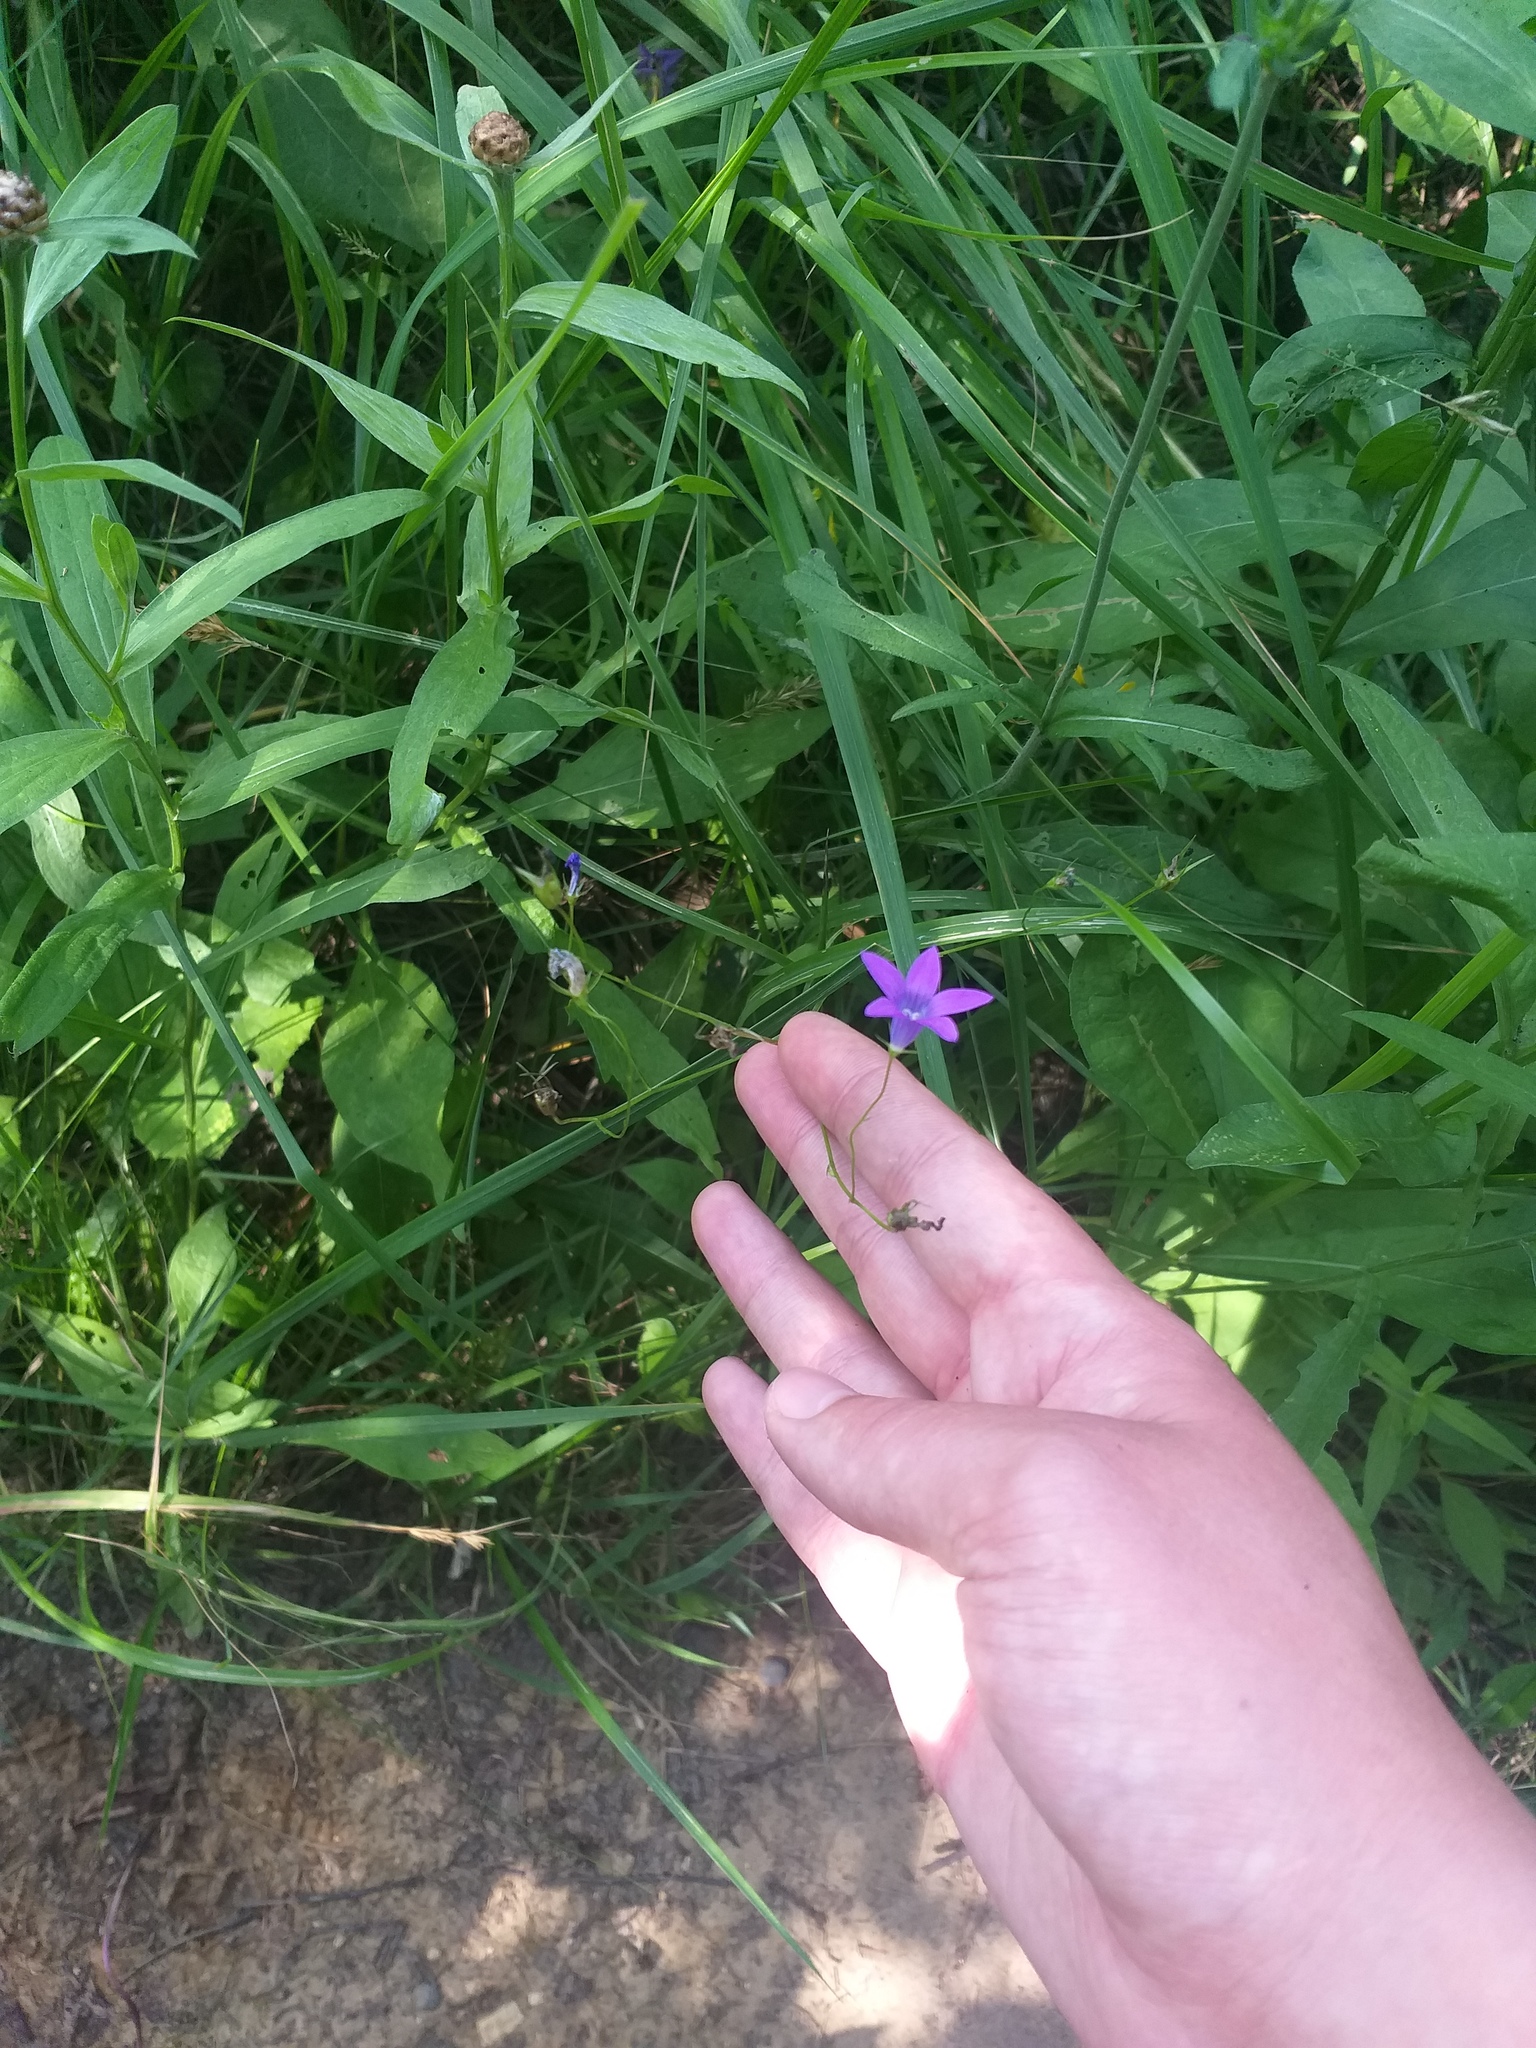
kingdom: Plantae
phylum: Tracheophyta
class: Magnoliopsida
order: Asterales
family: Campanulaceae
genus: Campanula
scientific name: Campanula patula
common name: Spreading bellflower
